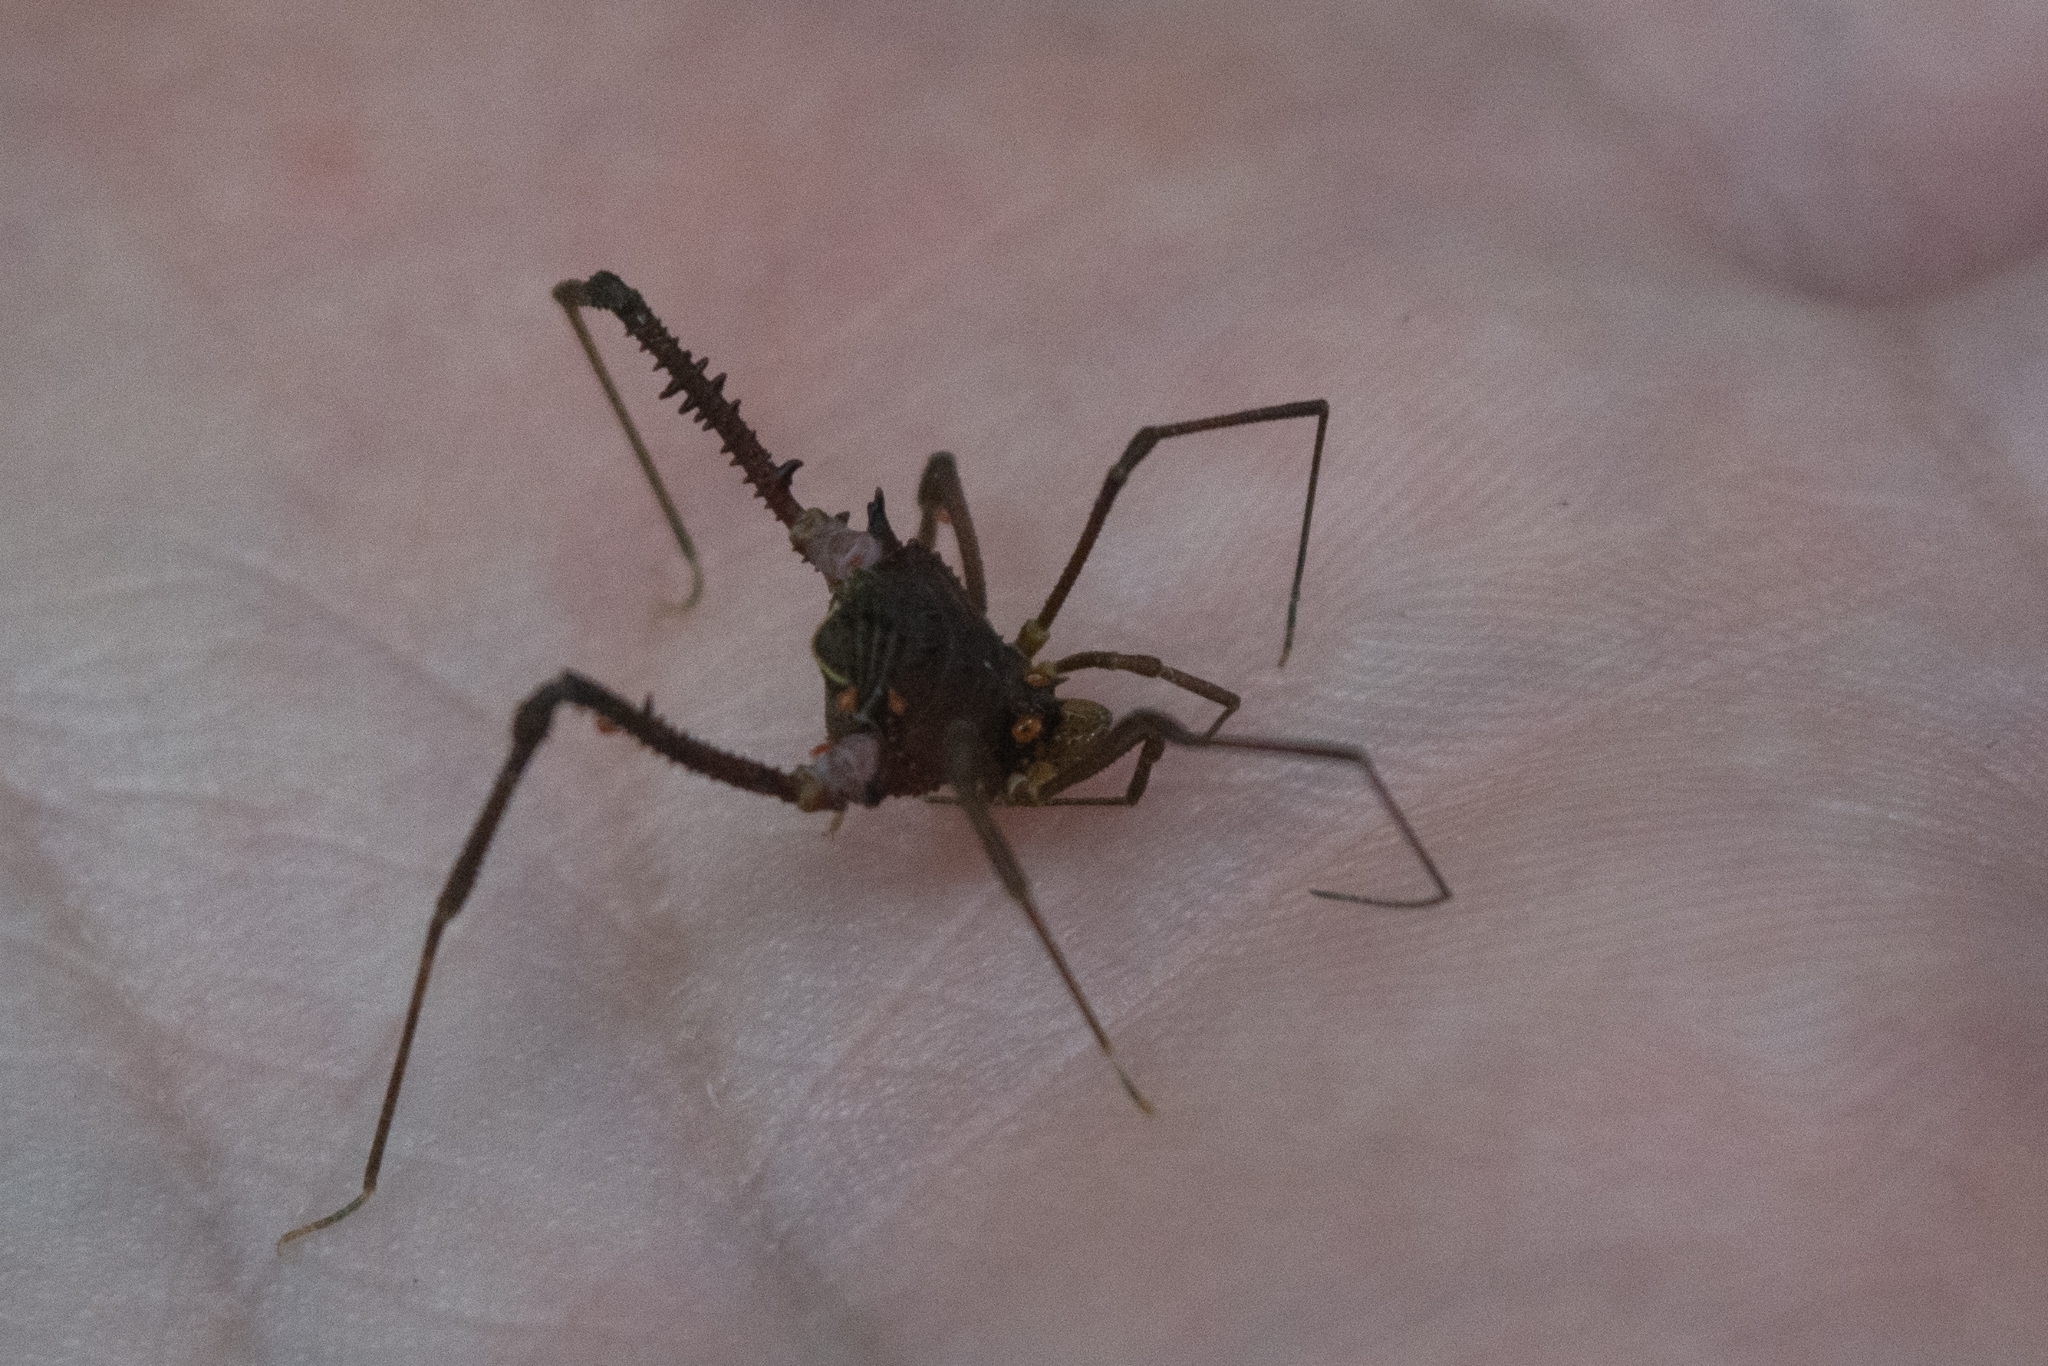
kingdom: Animalia
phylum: Arthropoda
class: Arachnida
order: Opiliones
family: Gonyleptidae
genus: Mischonyx
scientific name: Mischonyx squalidus
